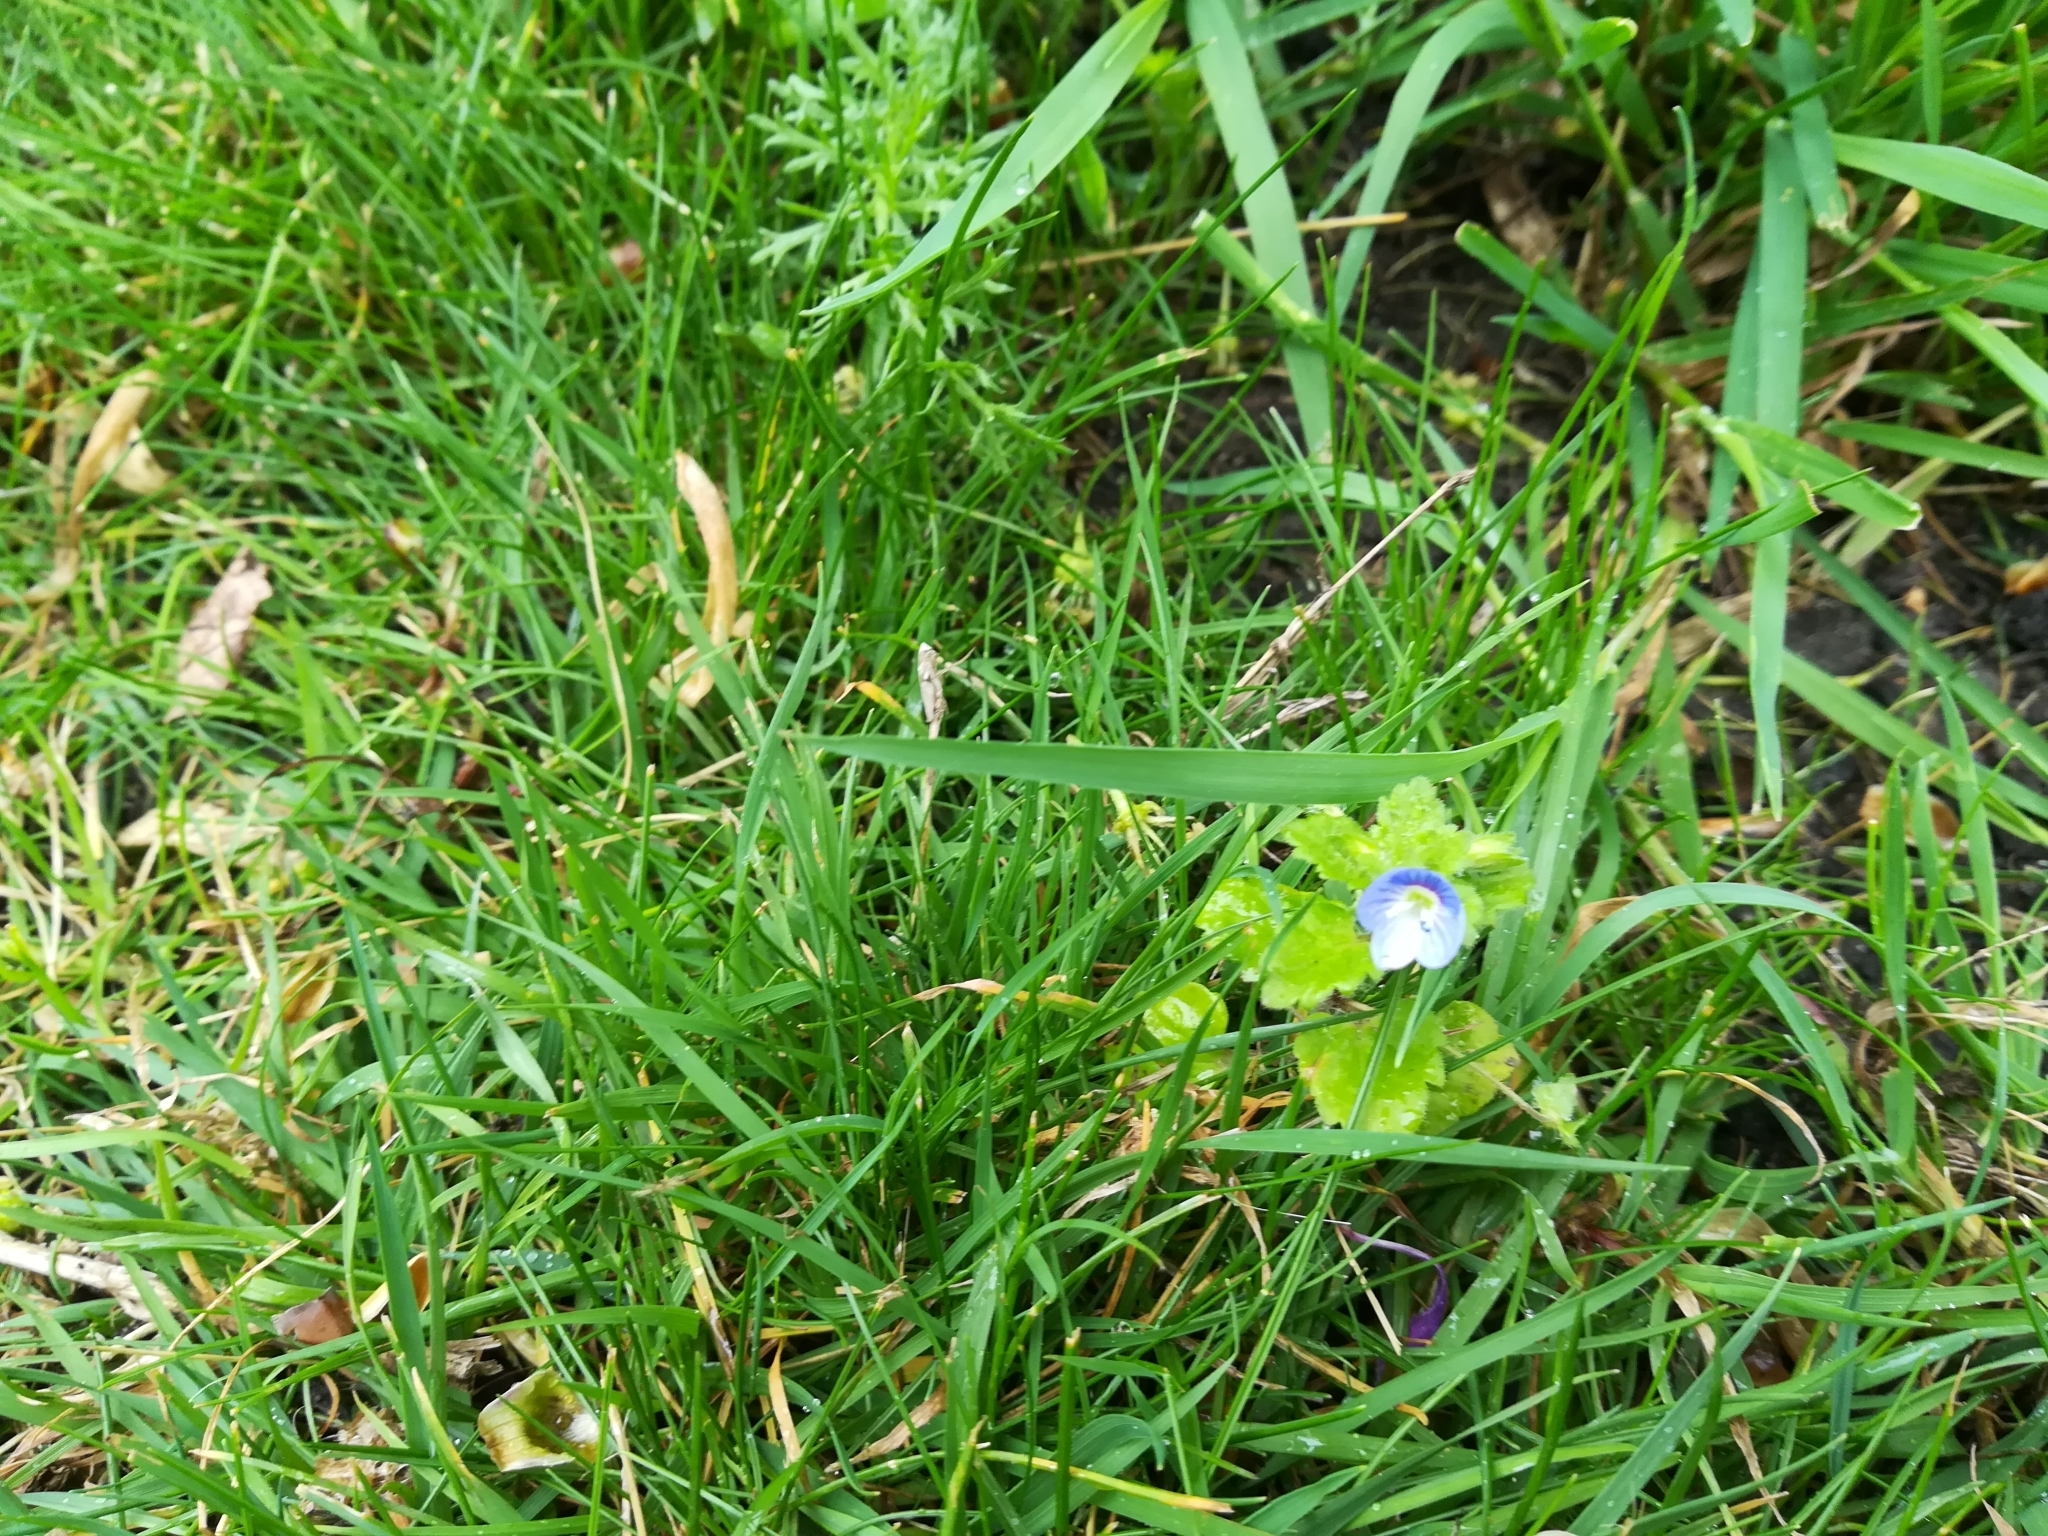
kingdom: Plantae
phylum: Tracheophyta
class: Magnoliopsida
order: Lamiales
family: Plantaginaceae
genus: Veronica
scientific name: Veronica persica
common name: Common field-speedwell
